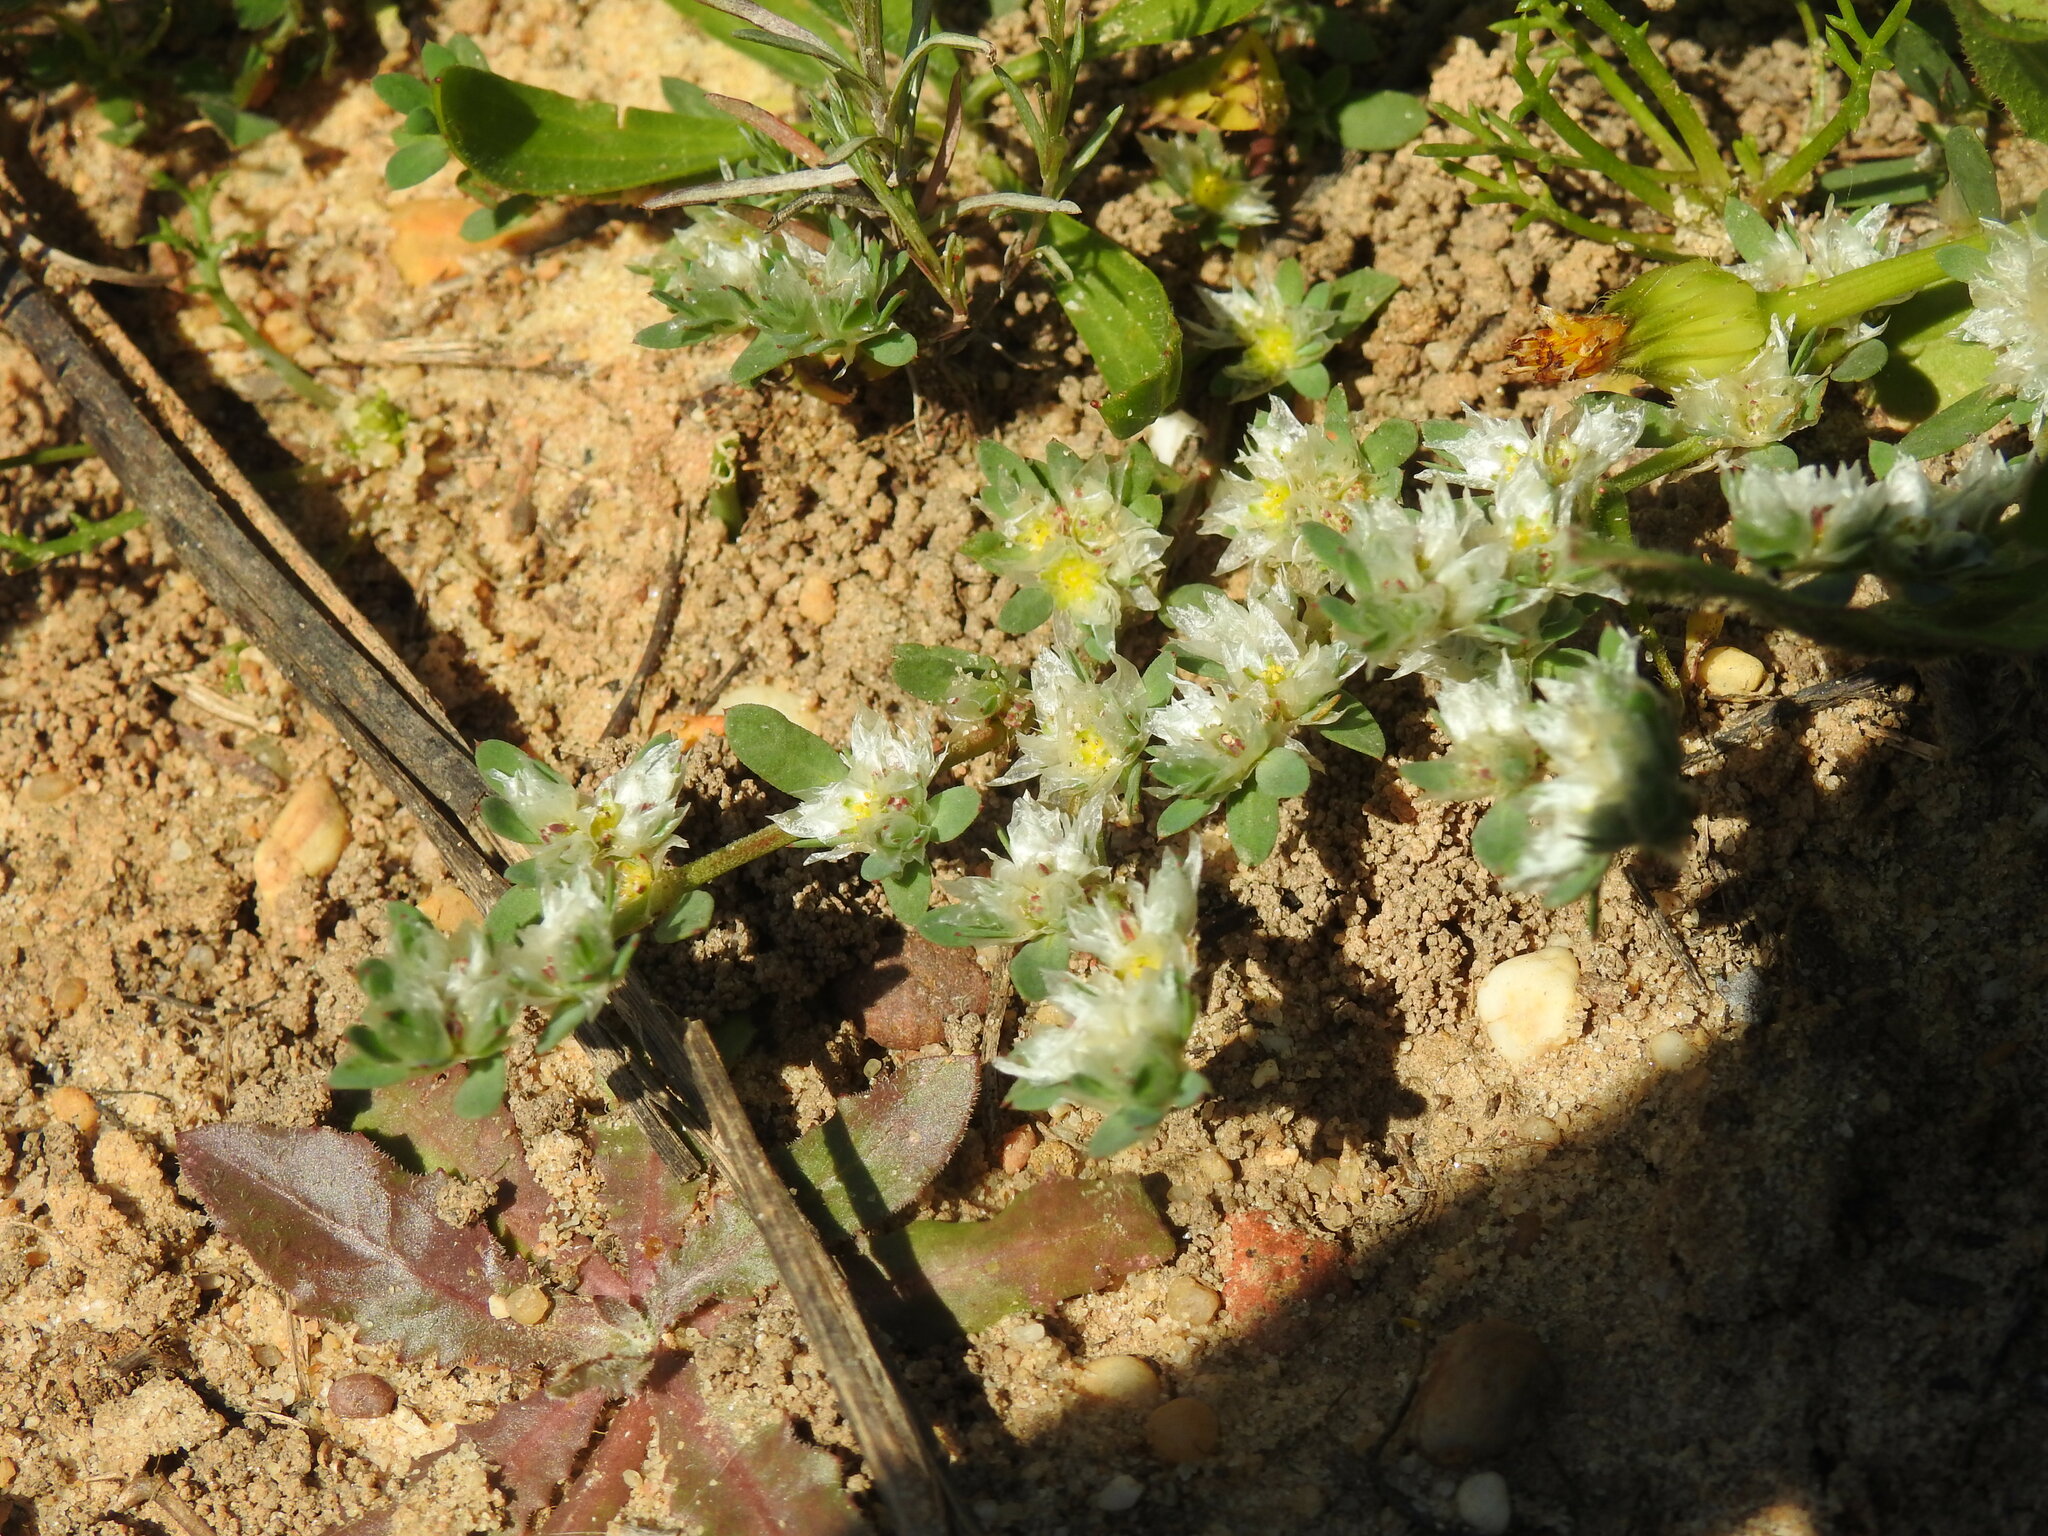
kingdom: Plantae
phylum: Tracheophyta
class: Magnoliopsida
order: Caryophyllales
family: Caryophyllaceae
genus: Paronychia
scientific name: Paronychia argentea
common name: Silver nailroot
